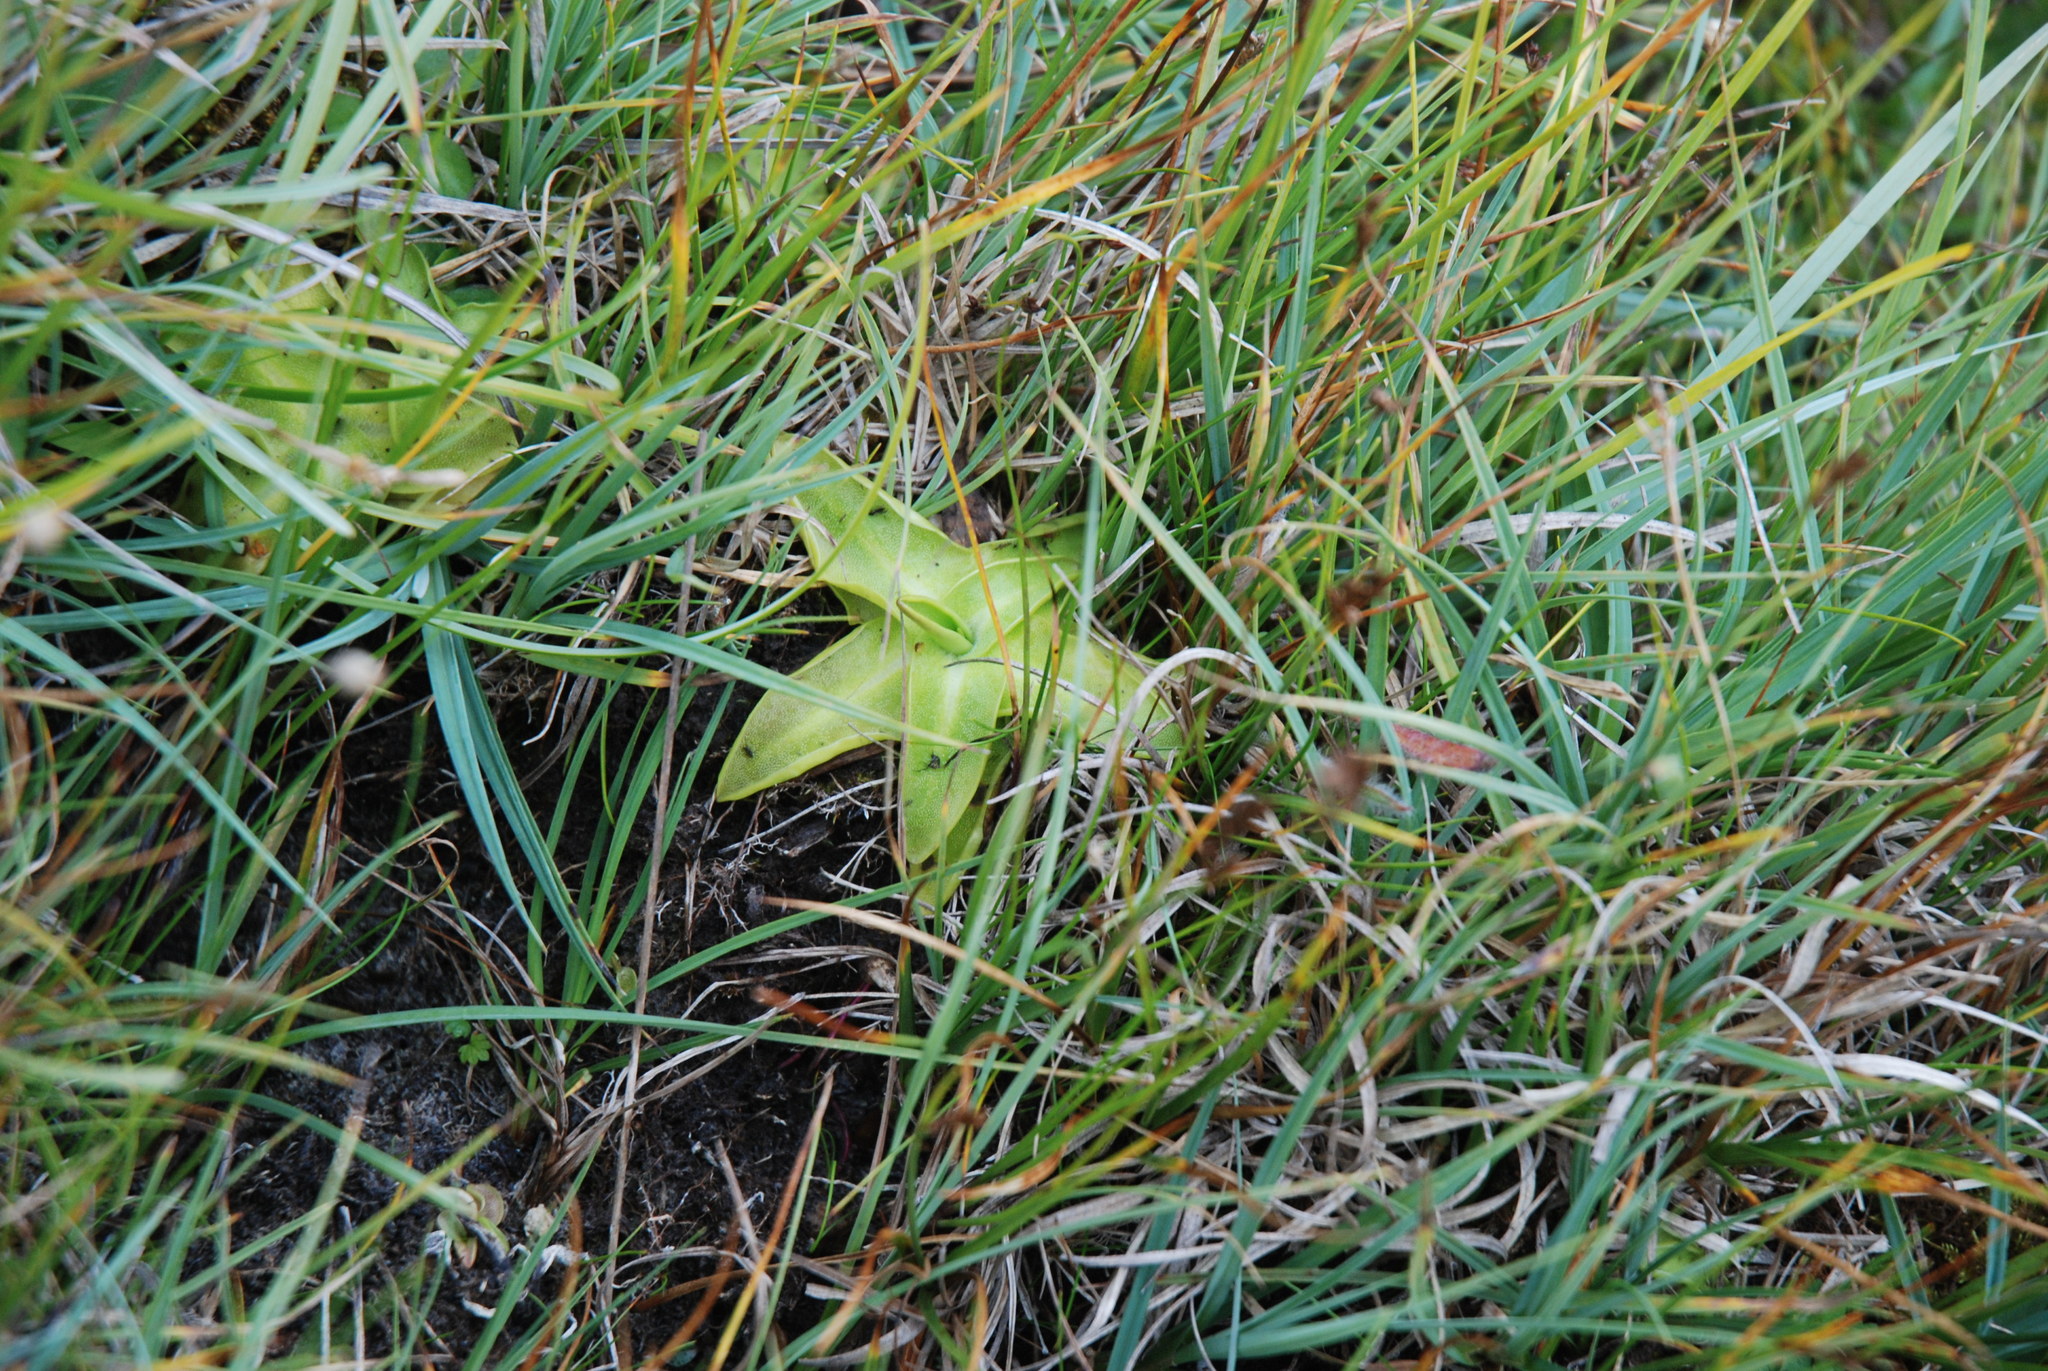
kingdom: Plantae
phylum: Tracheophyta
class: Magnoliopsida
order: Lamiales
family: Lentibulariaceae
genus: Pinguicula
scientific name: Pinguicula vulgaris
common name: Common butterwort
